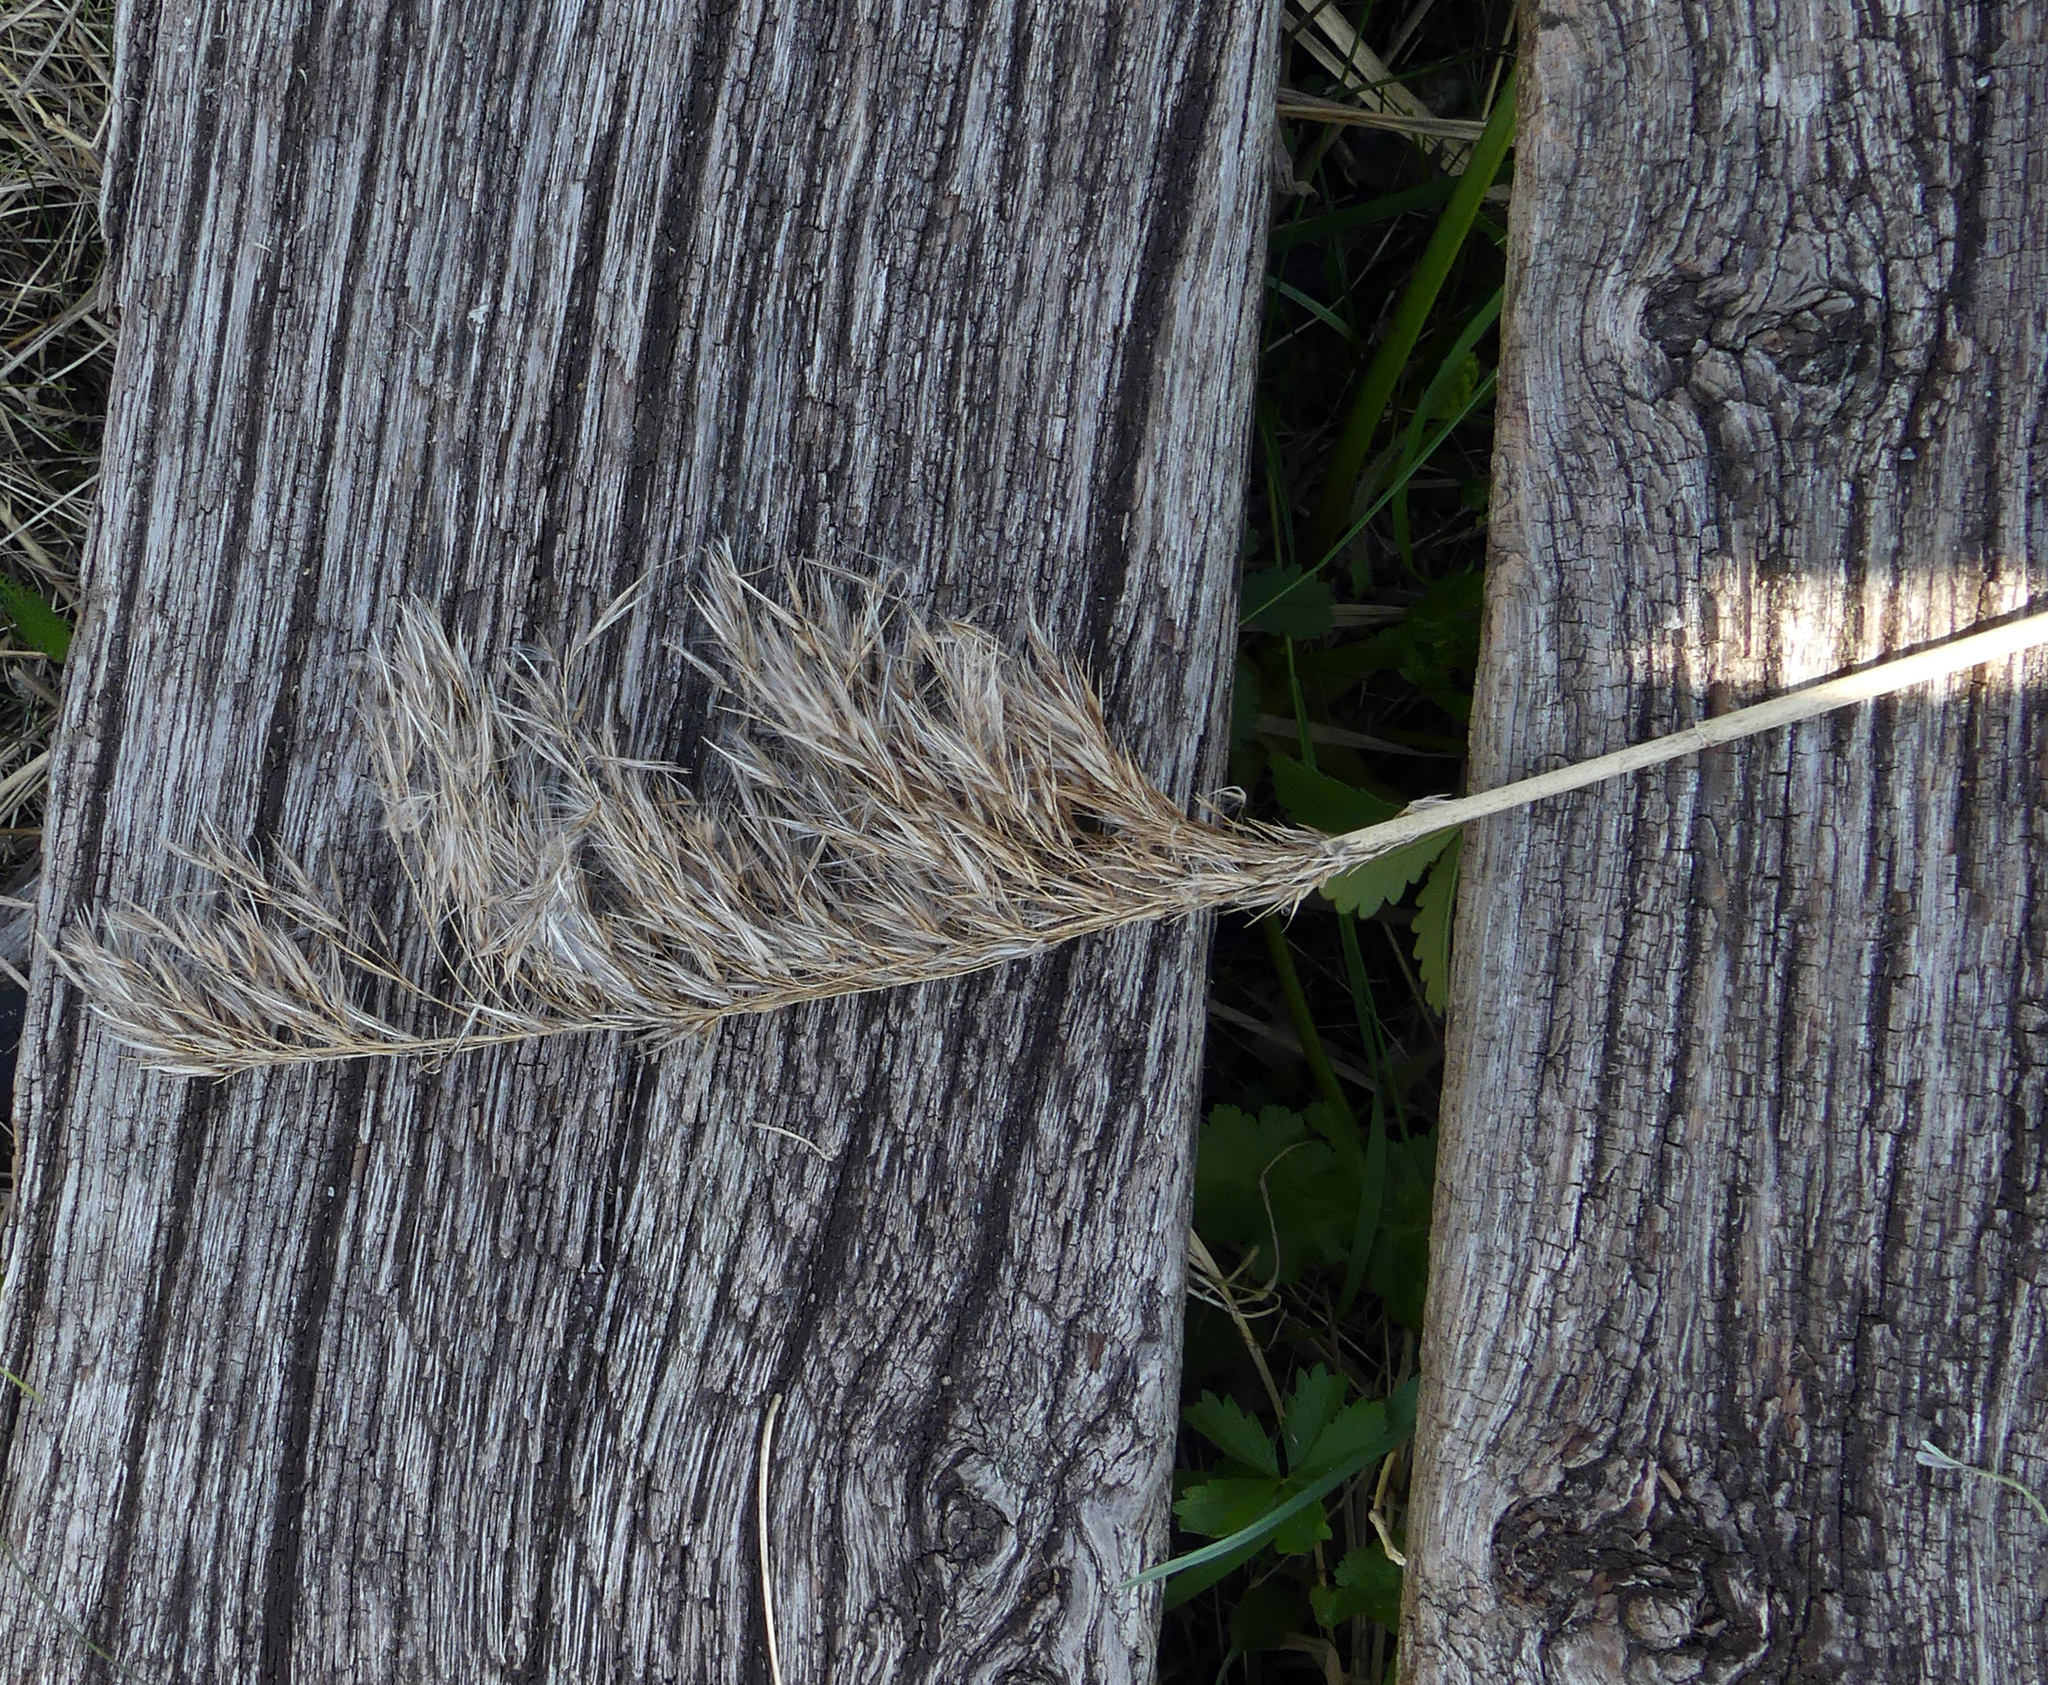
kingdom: Plantae
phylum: Tracheophyta
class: Liliopsida
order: Poales
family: Poaceae
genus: Phragmites
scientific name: Phragmites australis
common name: Common reed
